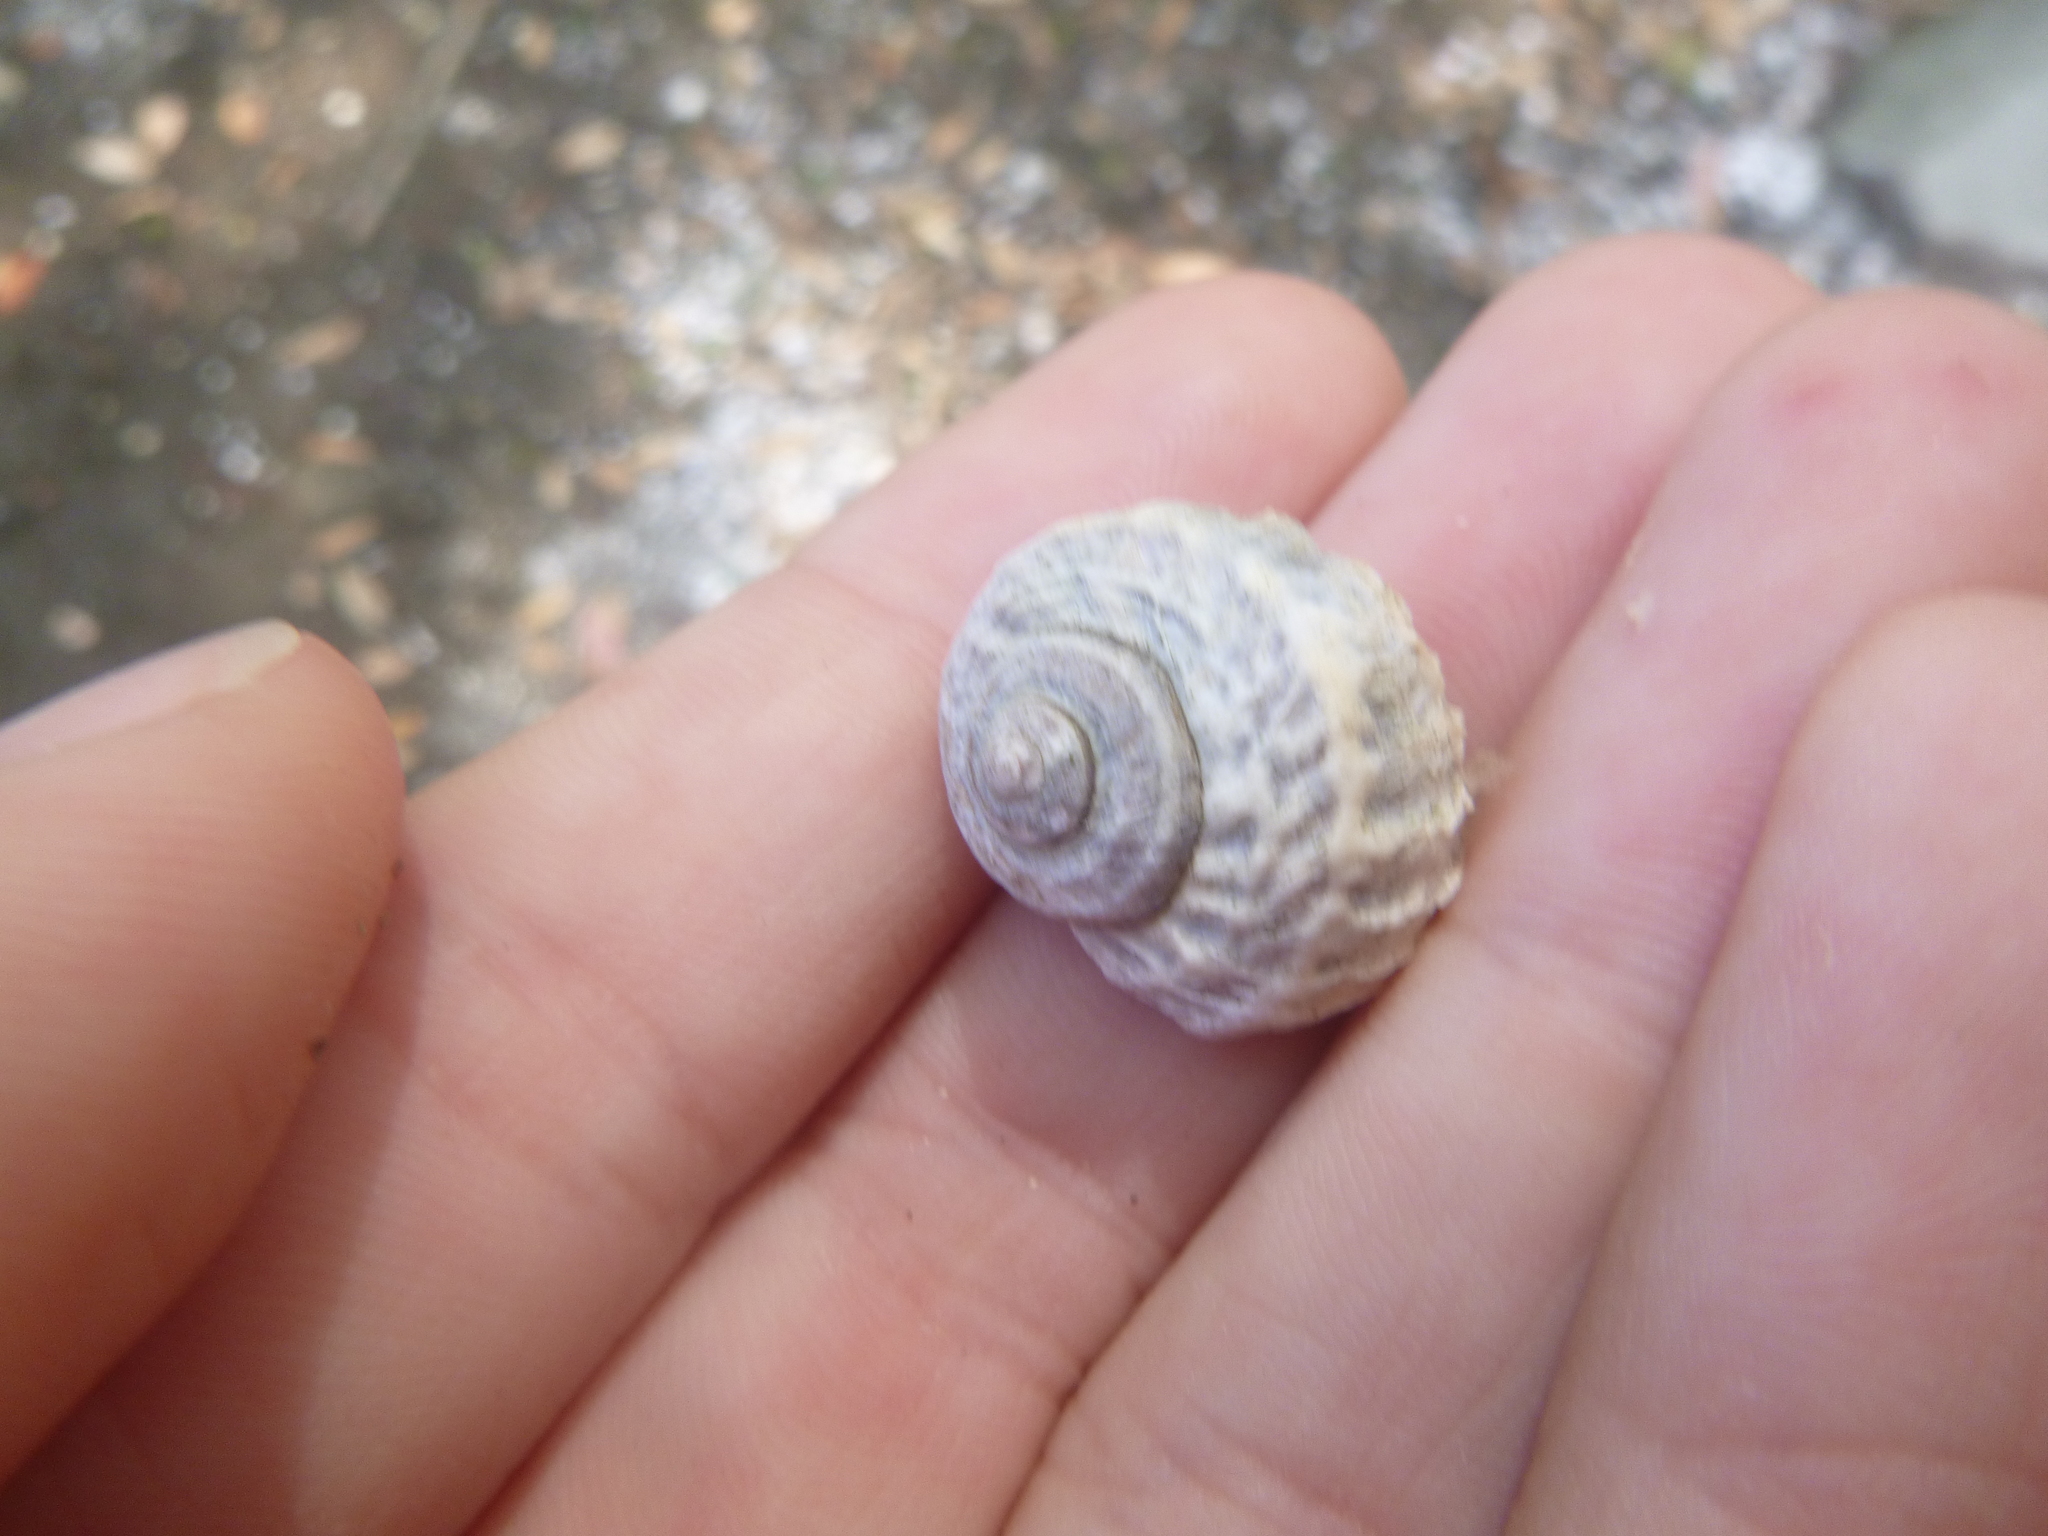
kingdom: Animalia
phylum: Mollusca
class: Gastropoda
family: Amphibolidae
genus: Amphibola
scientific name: Amphibola crenata
